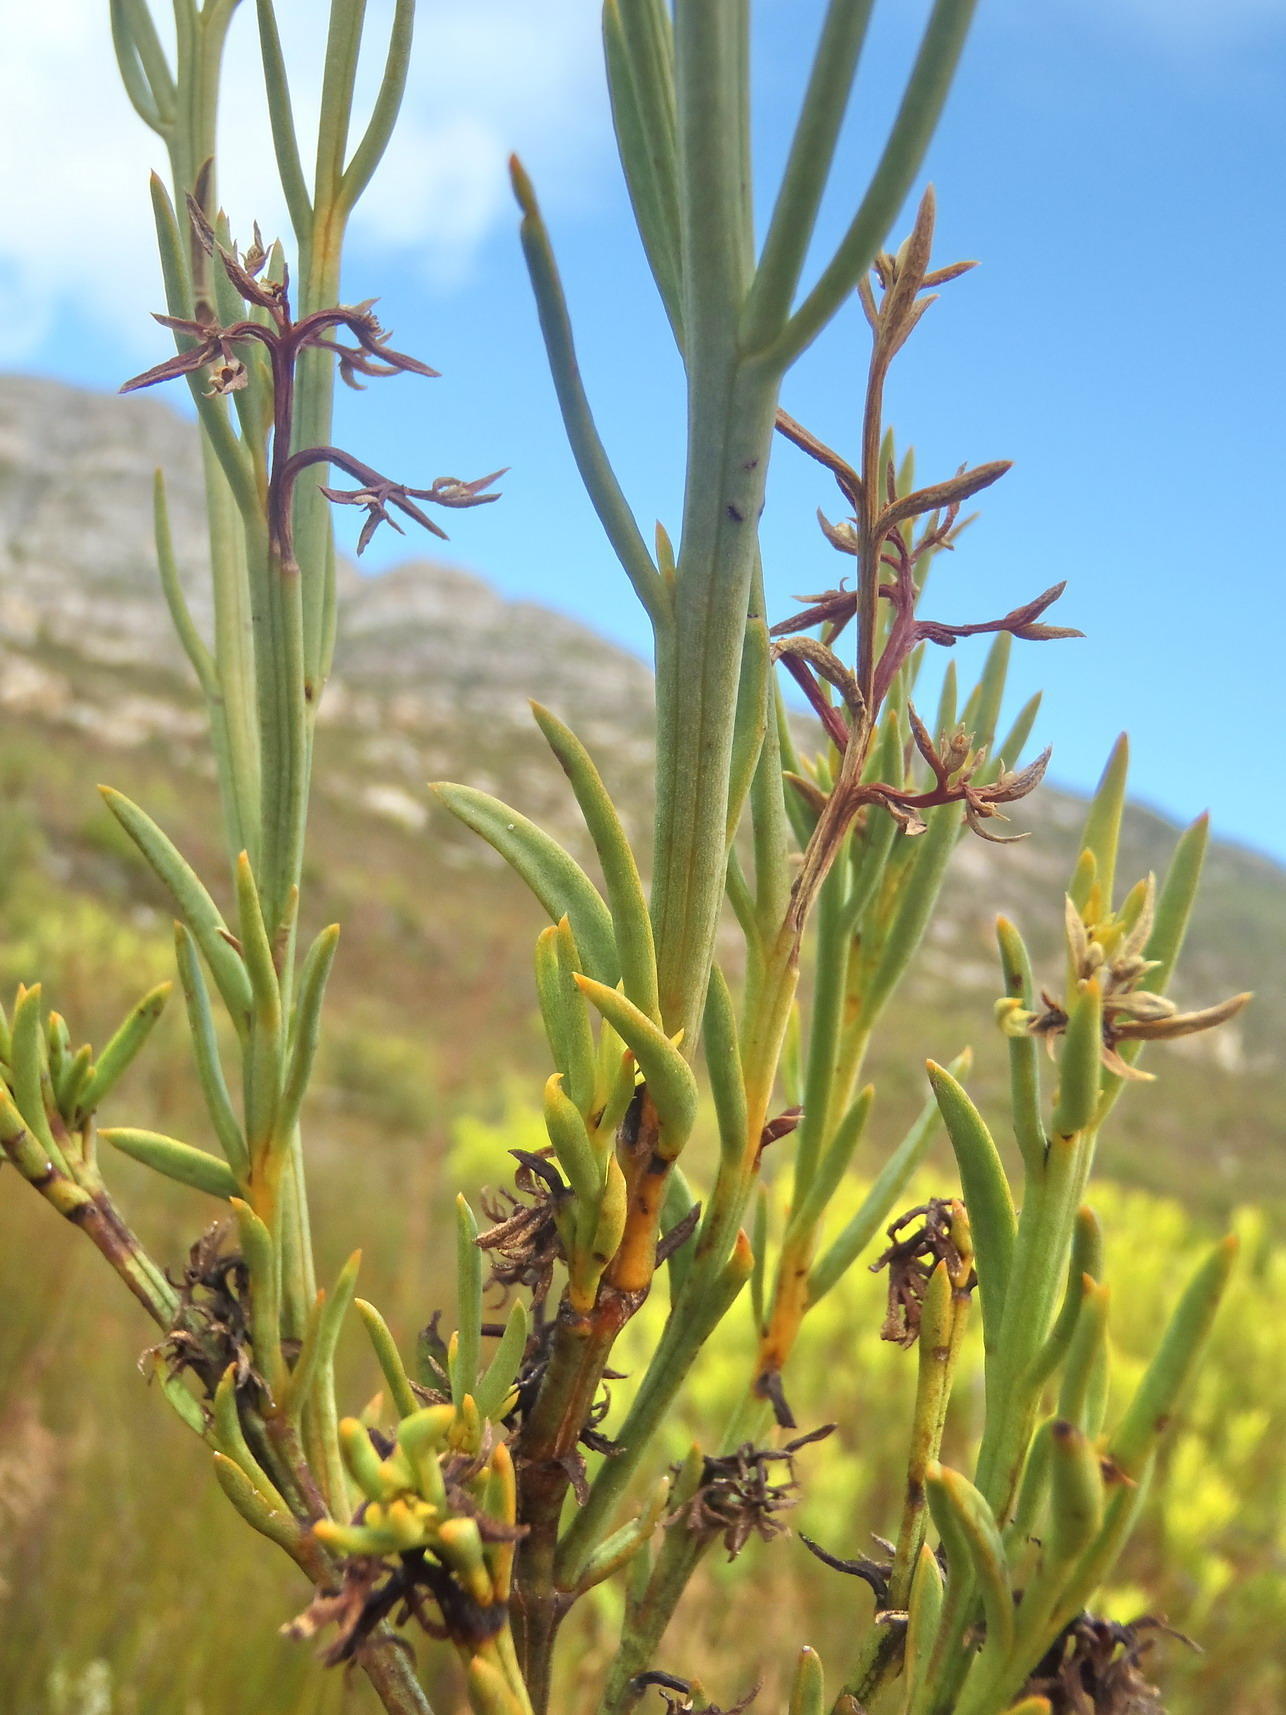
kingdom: Plantae
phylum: Tracheophyta
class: Magnoliopsida
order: Santalales
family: Thesiaceae
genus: Thesium
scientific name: Thesium strictum
